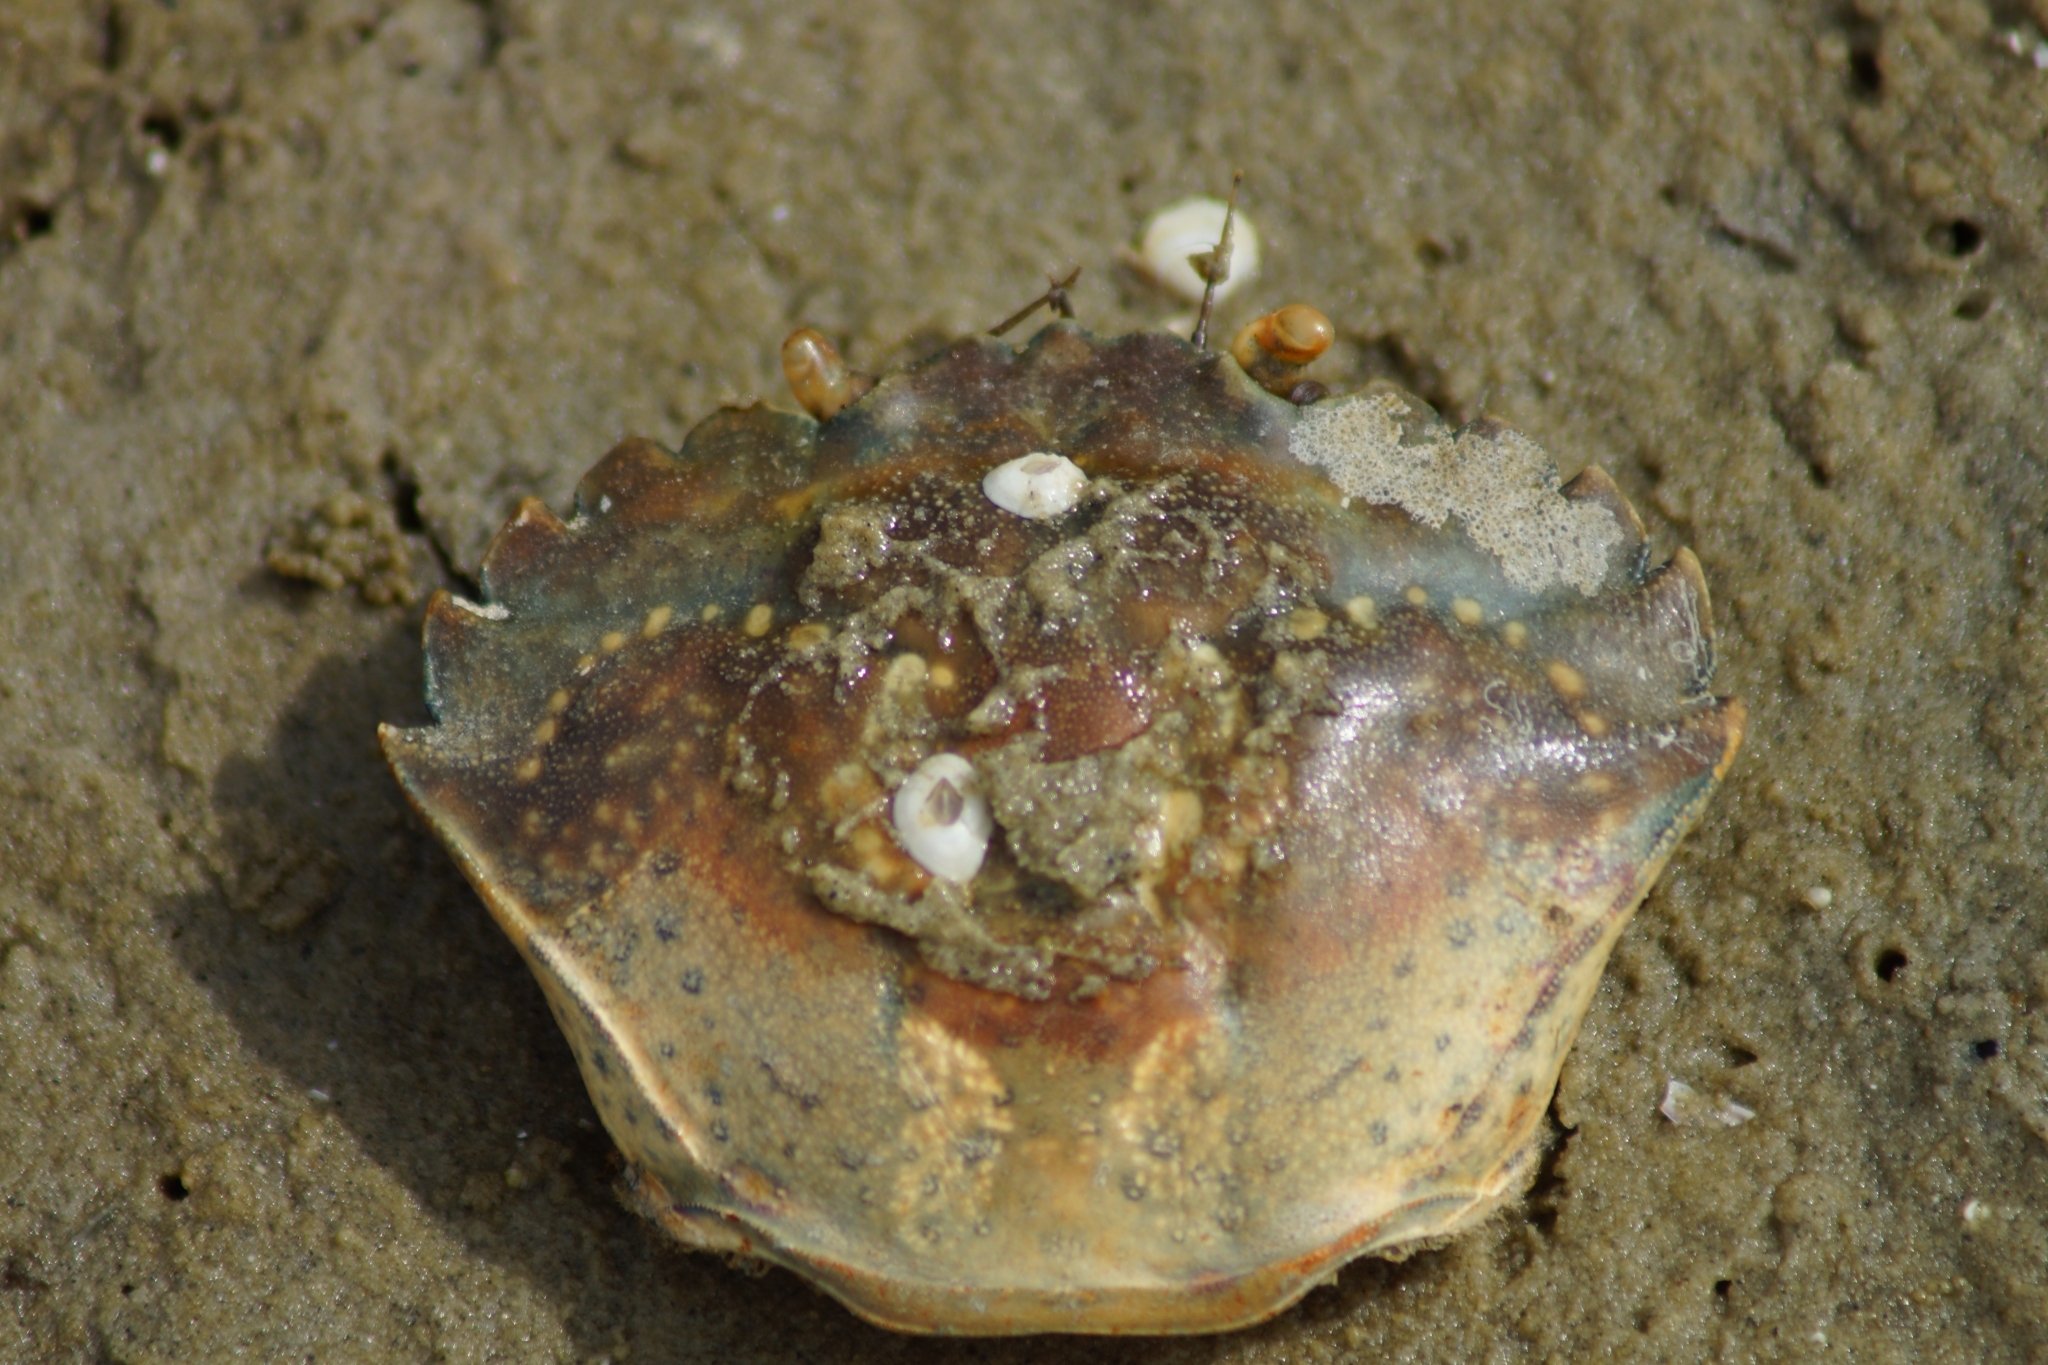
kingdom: Animalia
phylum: Arthropoda
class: Malacostraca
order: Decapoda
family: Carcinidae
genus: Carcinus
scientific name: Carcinus maenas
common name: European green crab
